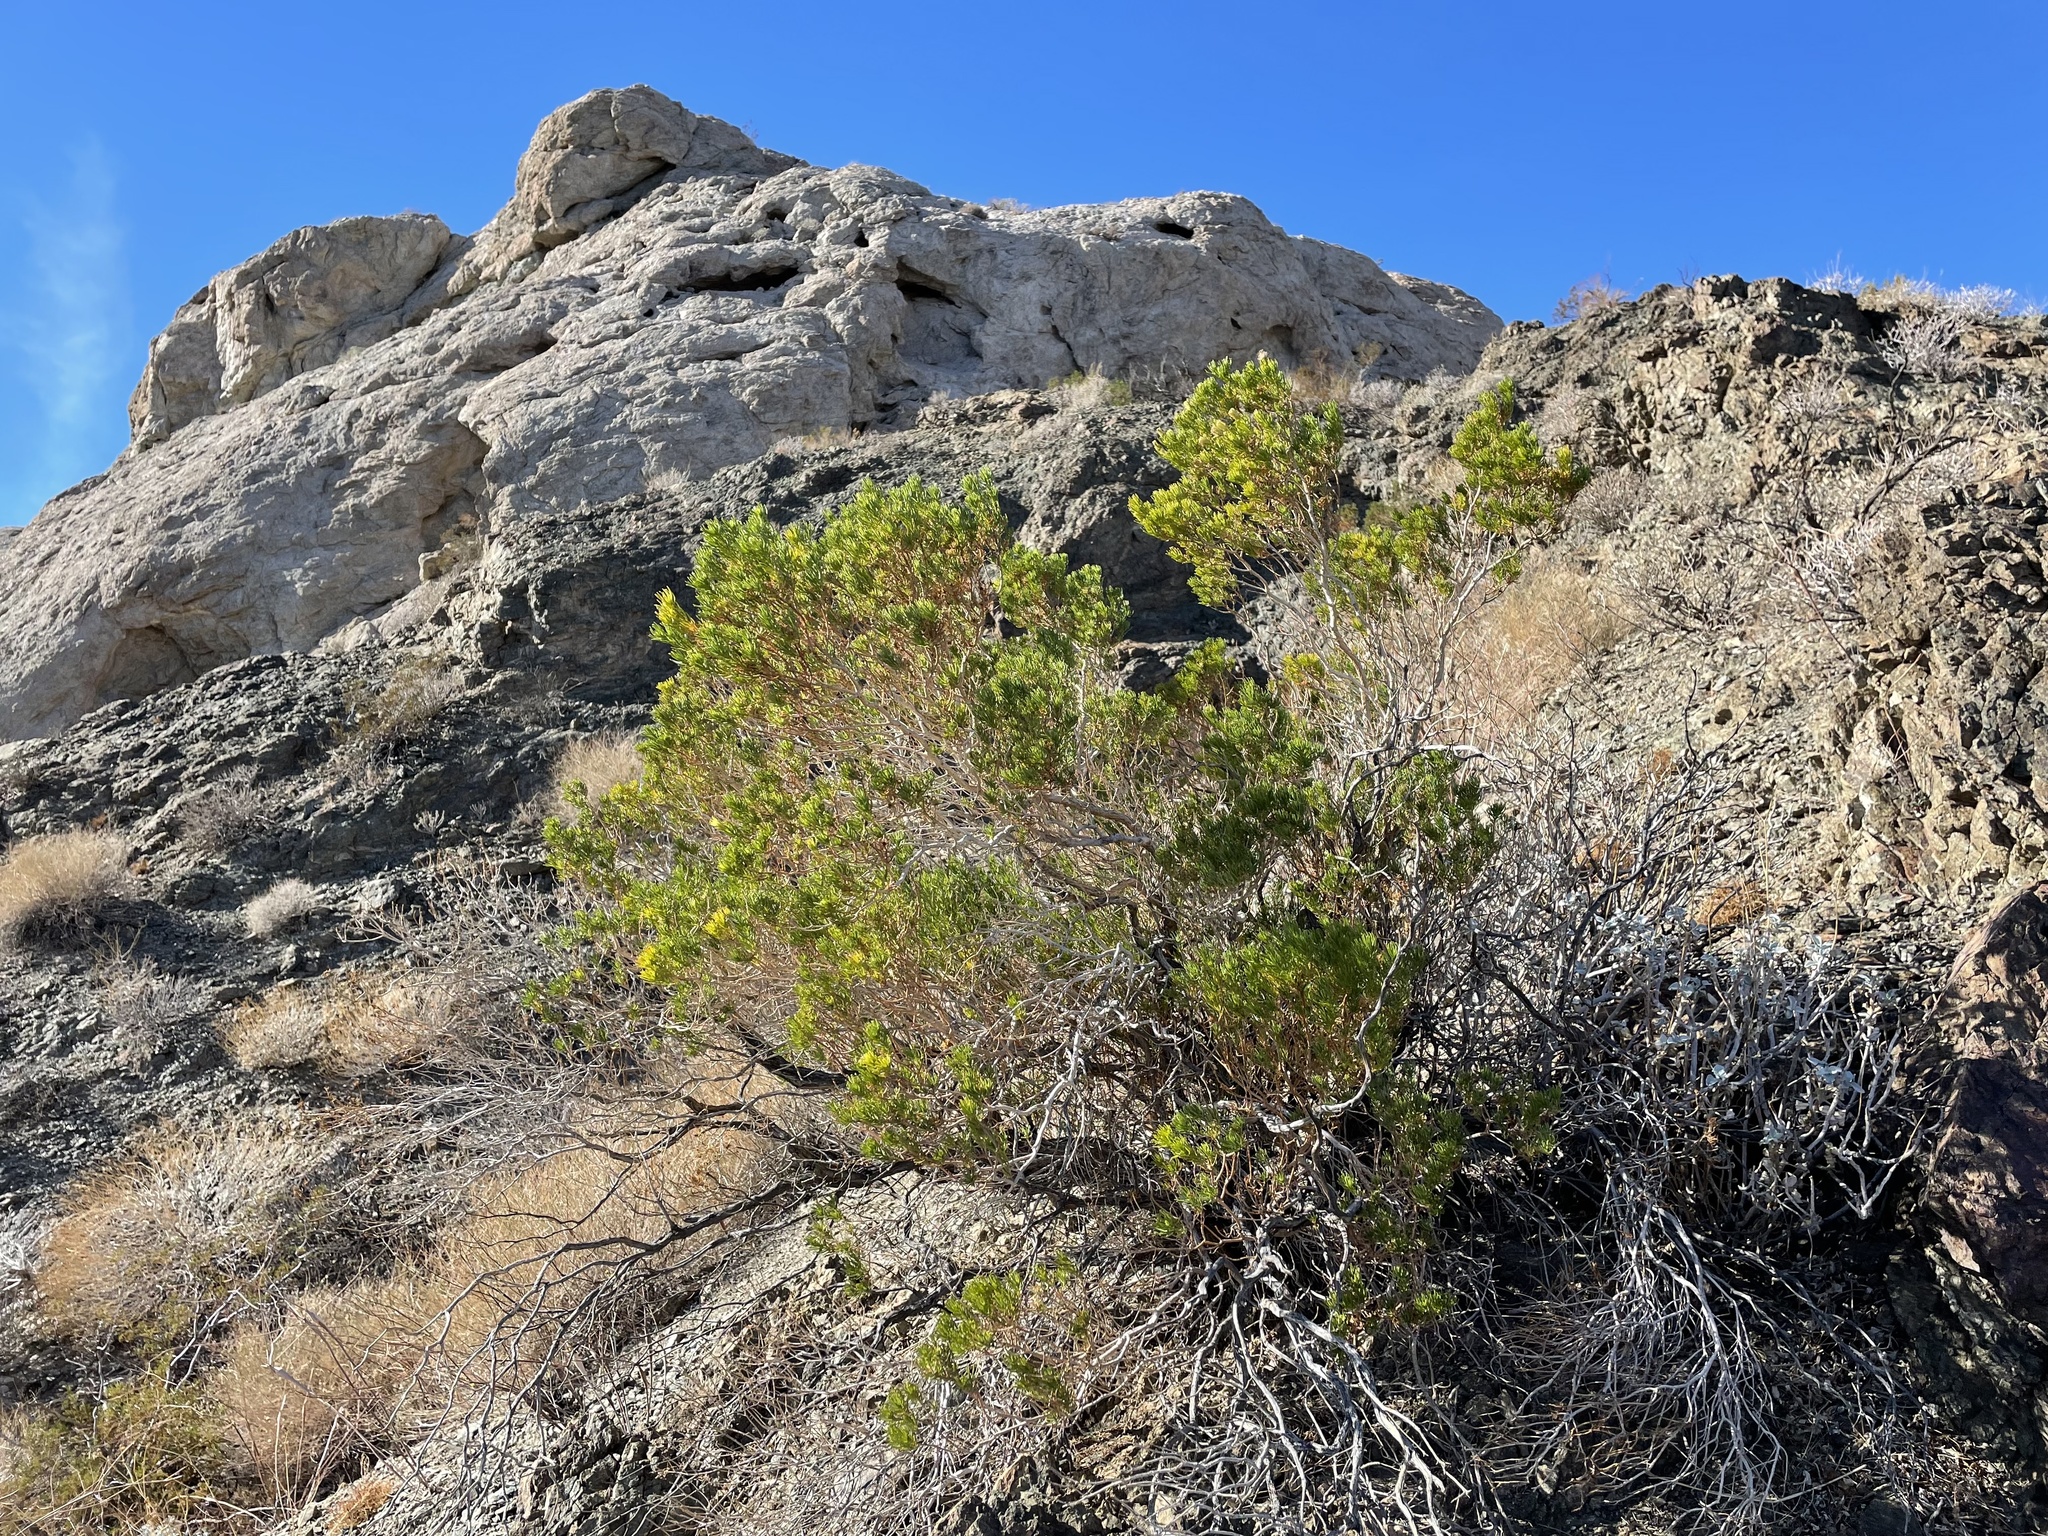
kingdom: Plantae
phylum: Tracheophyta
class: Magnoliopsida
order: Asterales
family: Asteraceae
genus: Peucephyllum
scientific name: Peucephyllum schottii
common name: Pygmy-cedar
